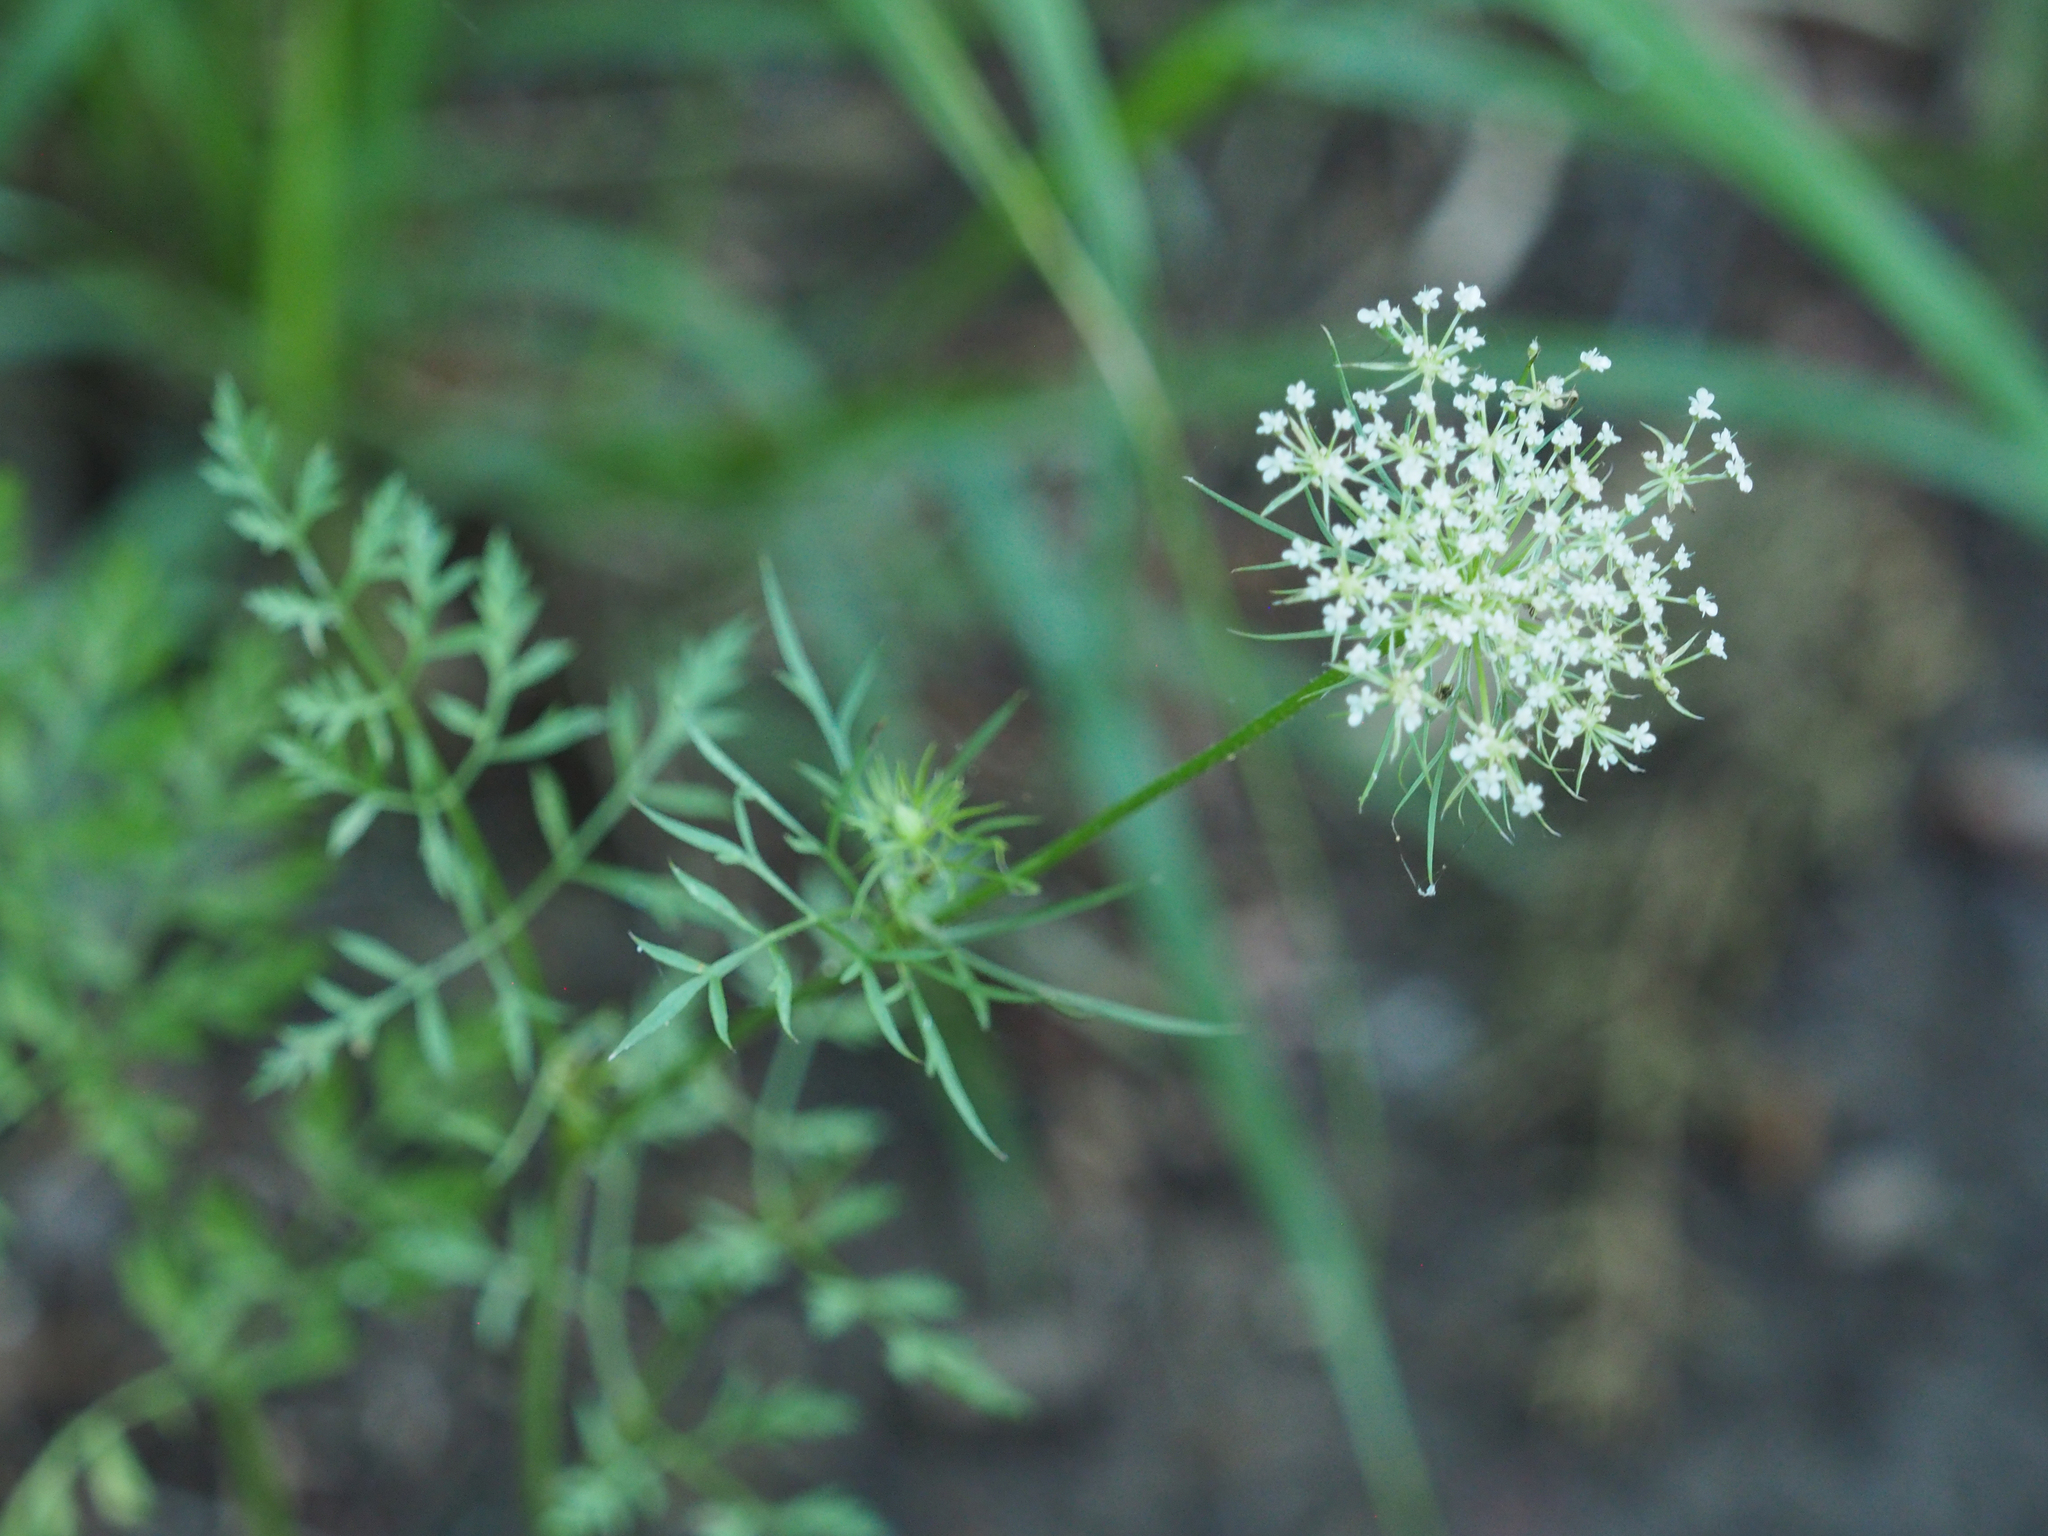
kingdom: Plantae
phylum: Tracheophyta
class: Magnoliopsida
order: Apiales
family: Apiaceae
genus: Daucus
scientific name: Daucus carota
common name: Wild carrot
